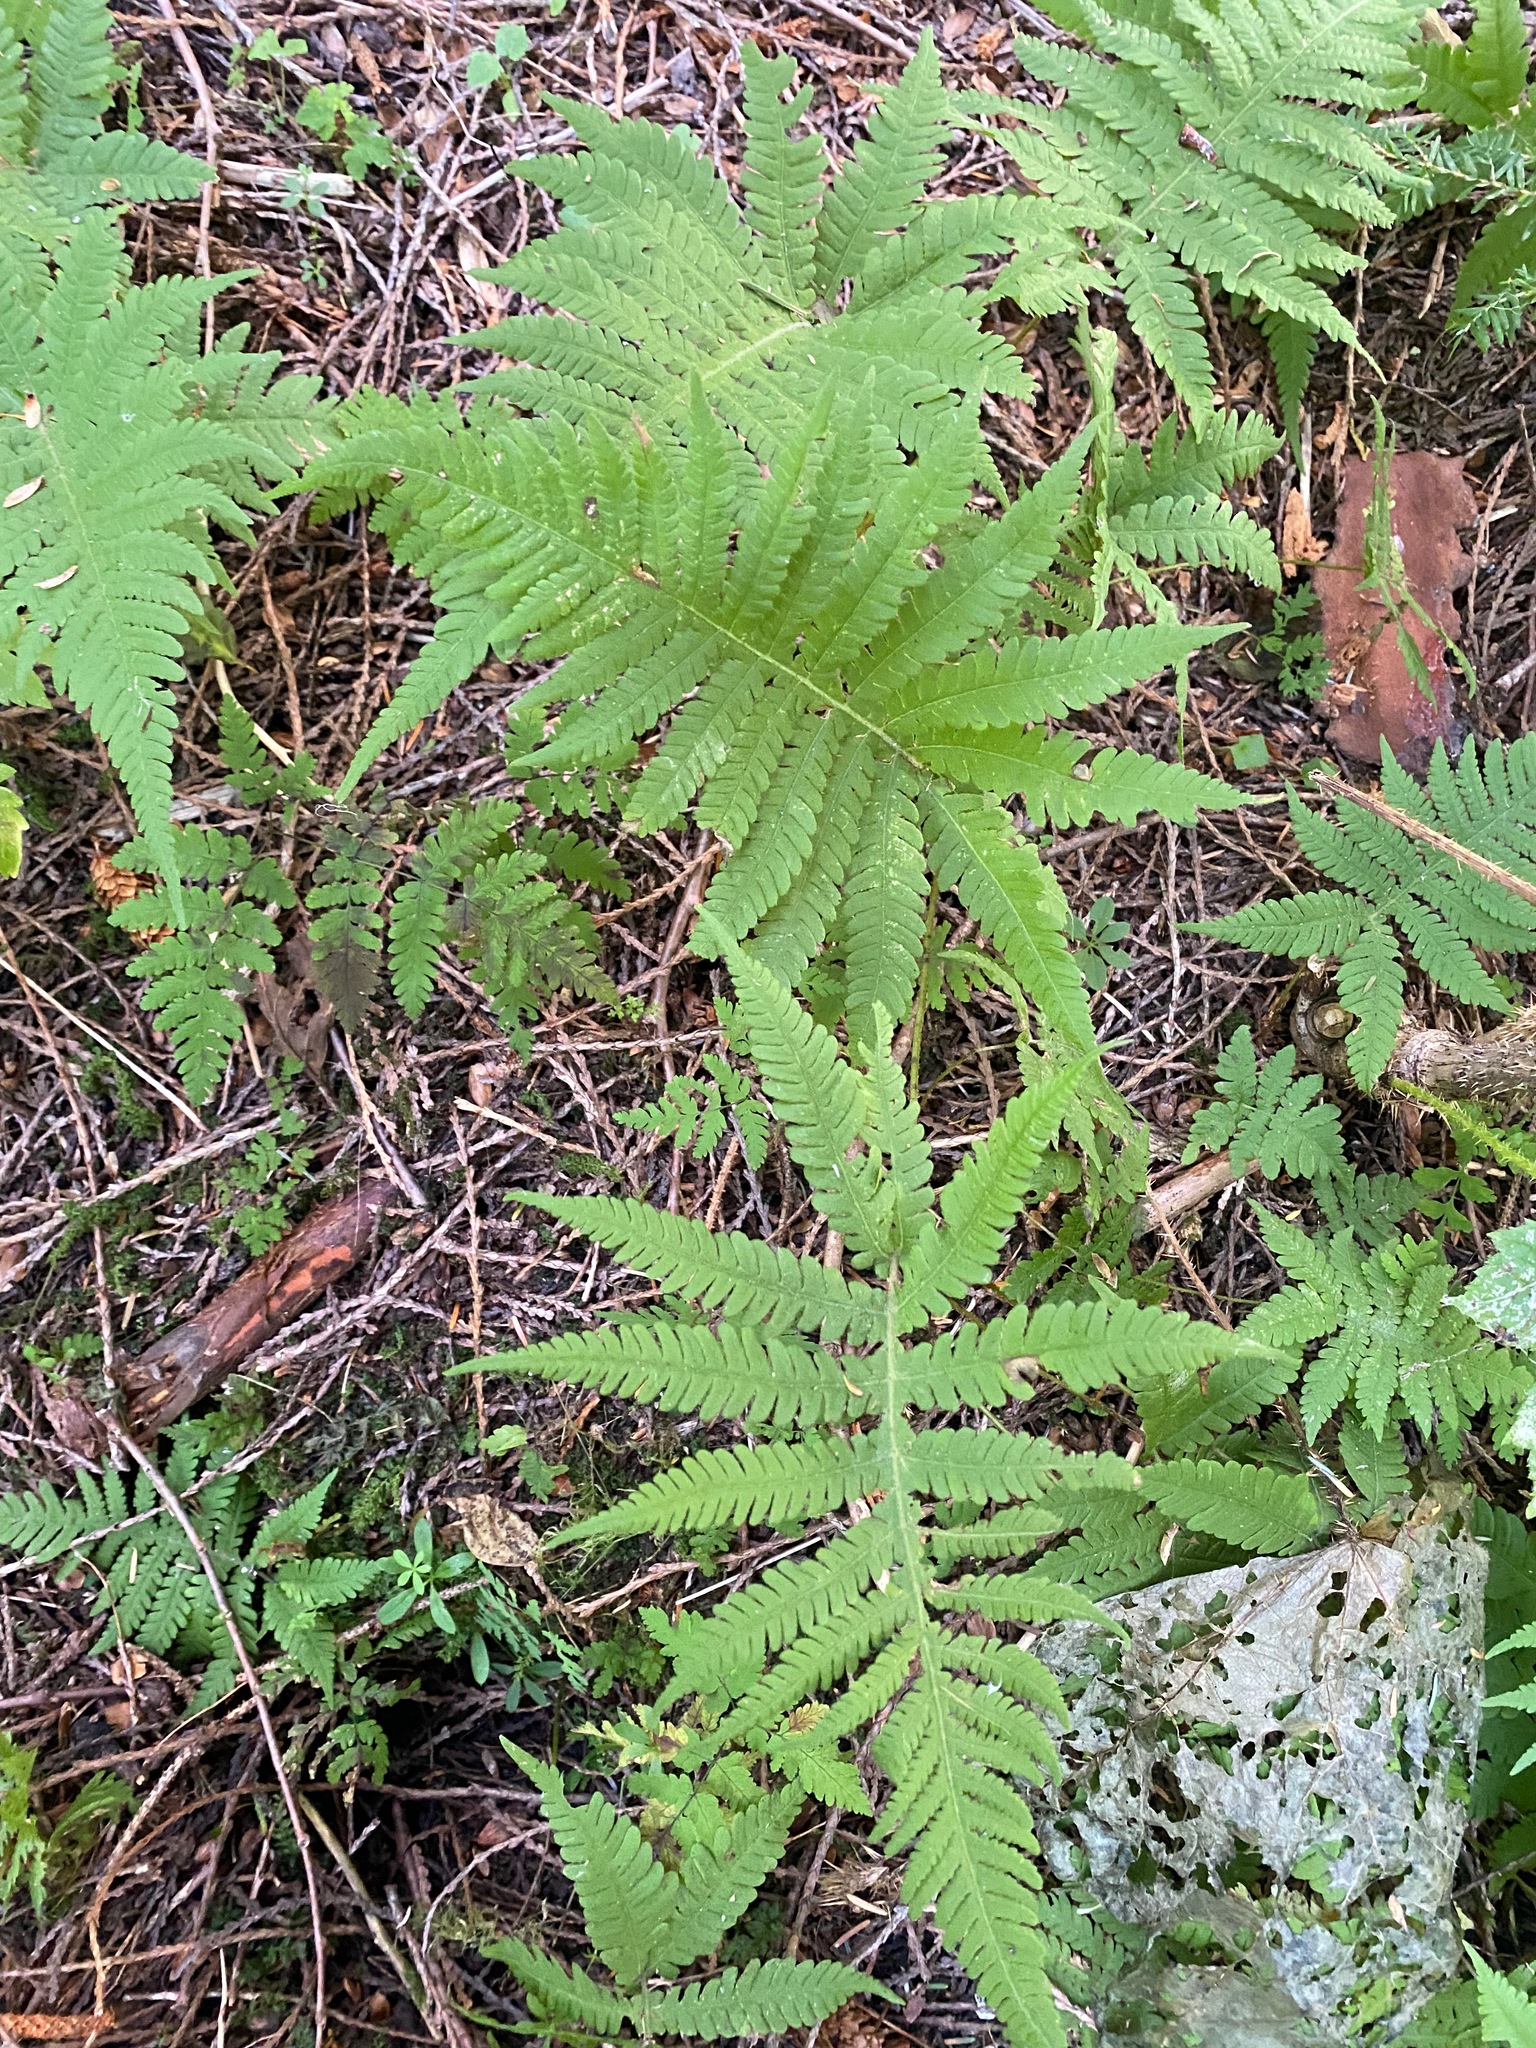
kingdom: Plantae
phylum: Tracheophyta
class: Polypodiopsida
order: Polypodiales
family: Thelypteridaceae
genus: Phegopteris
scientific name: Phegopteris connectilis
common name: Beech fern
